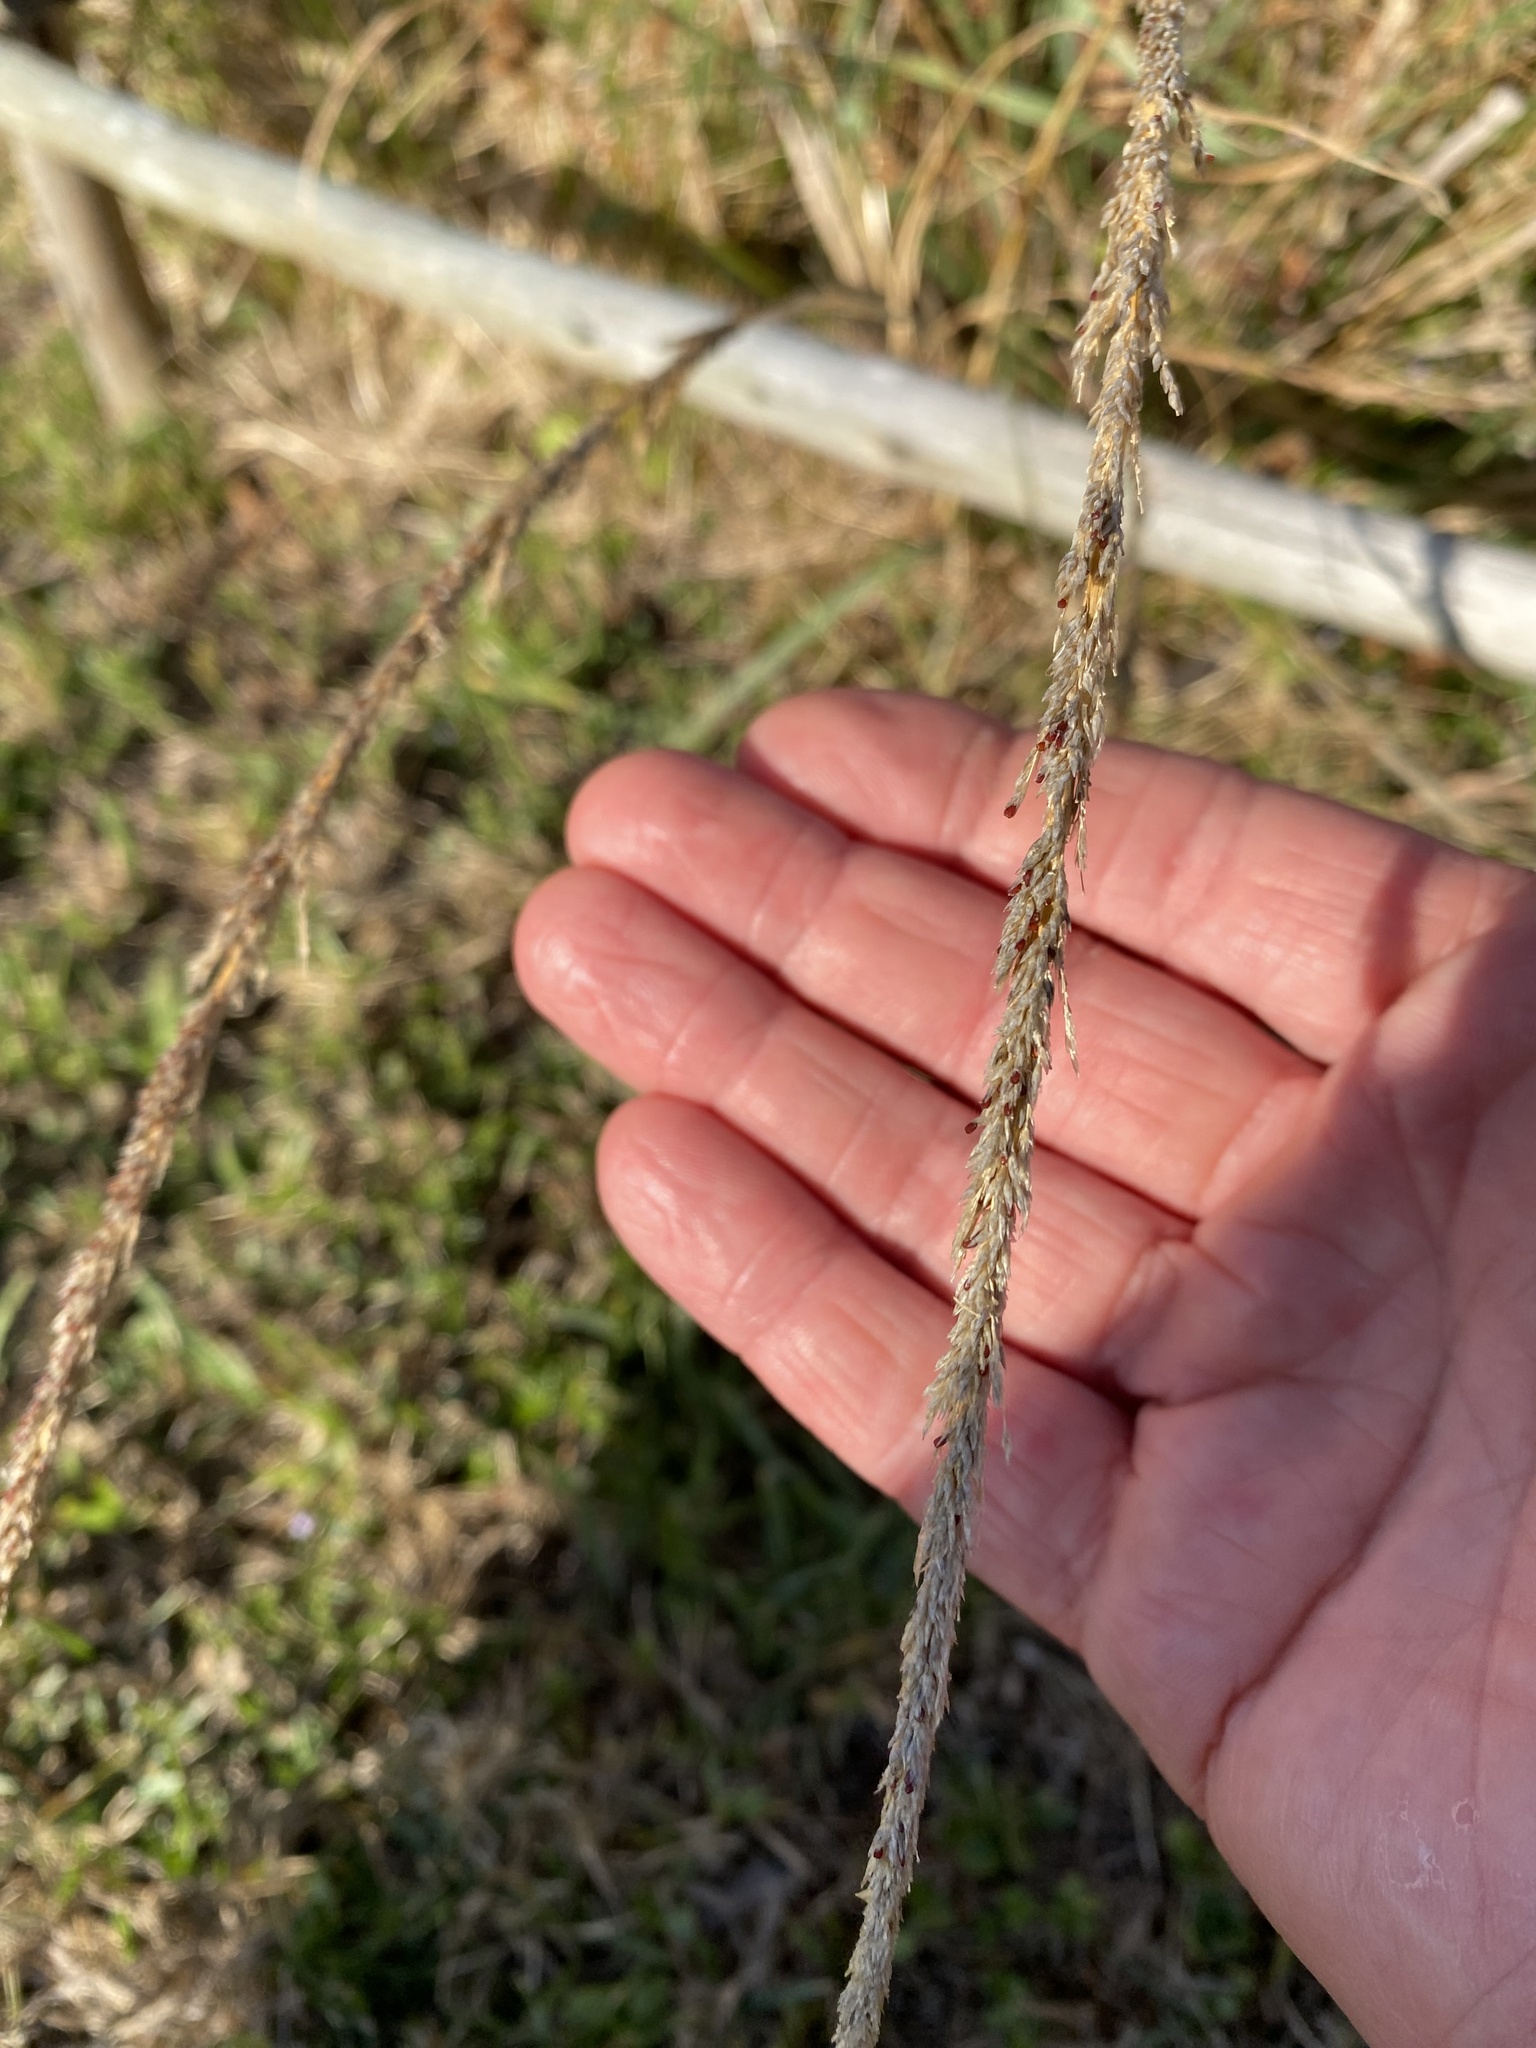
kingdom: Plantae
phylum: Tracheophyta
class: Liliopsida
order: Poales
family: Poaceae
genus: Sporobolus
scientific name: Sporobolus africanus
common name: African dropseed
